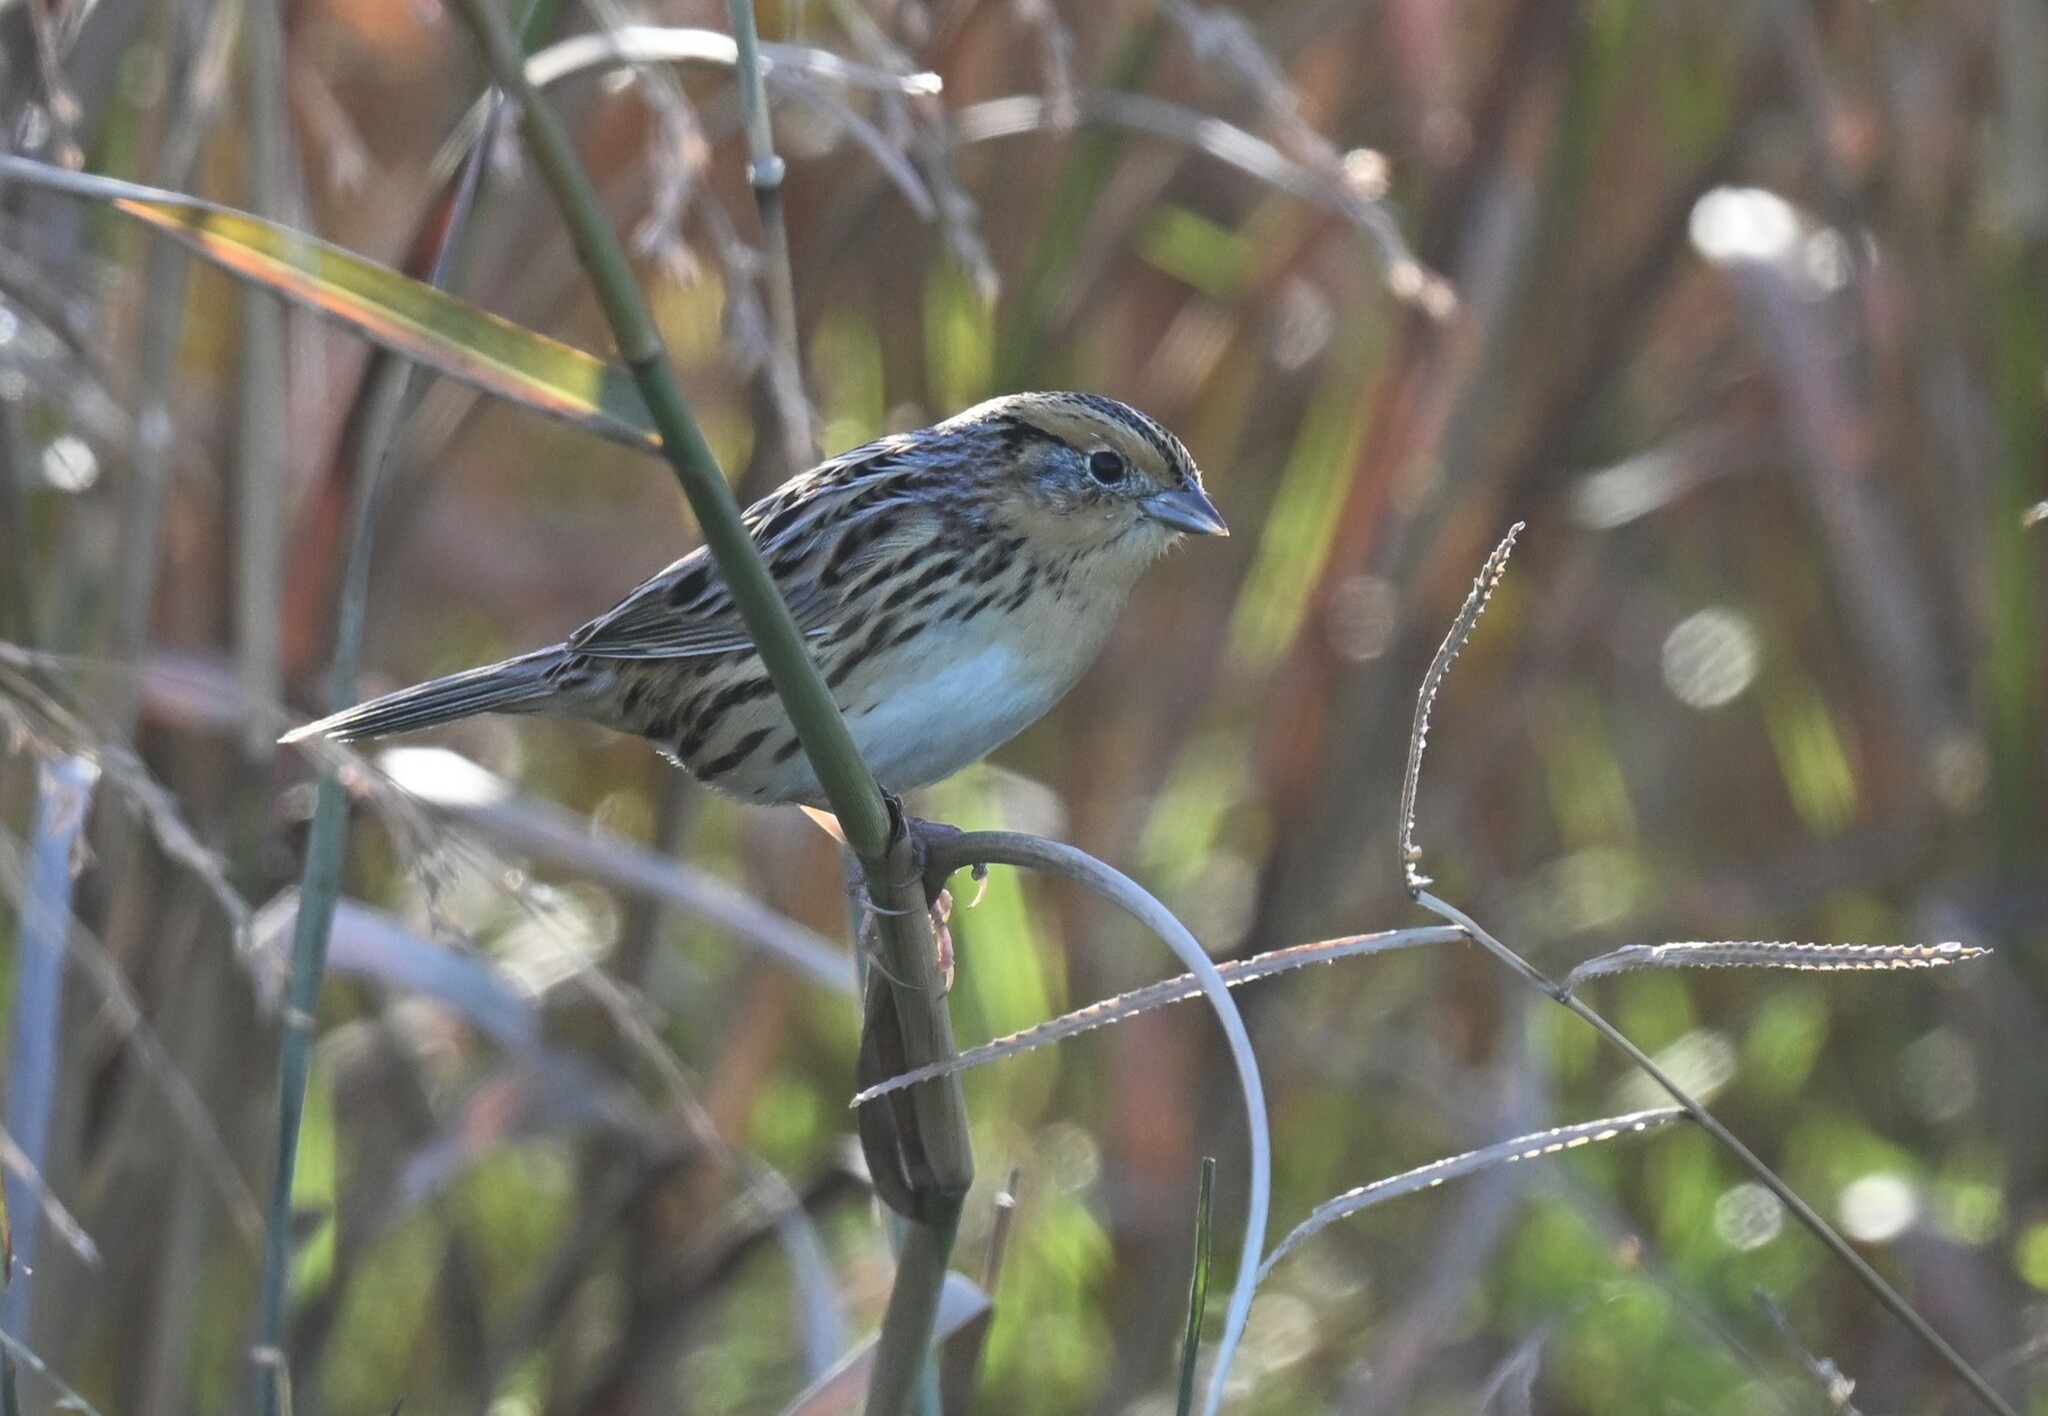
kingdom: Animalia
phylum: Chordata
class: Aves
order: Passeriformes
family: Passerellidae
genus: Ammospiza
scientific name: Ammospiza leconteii
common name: Le conte's sparrow
